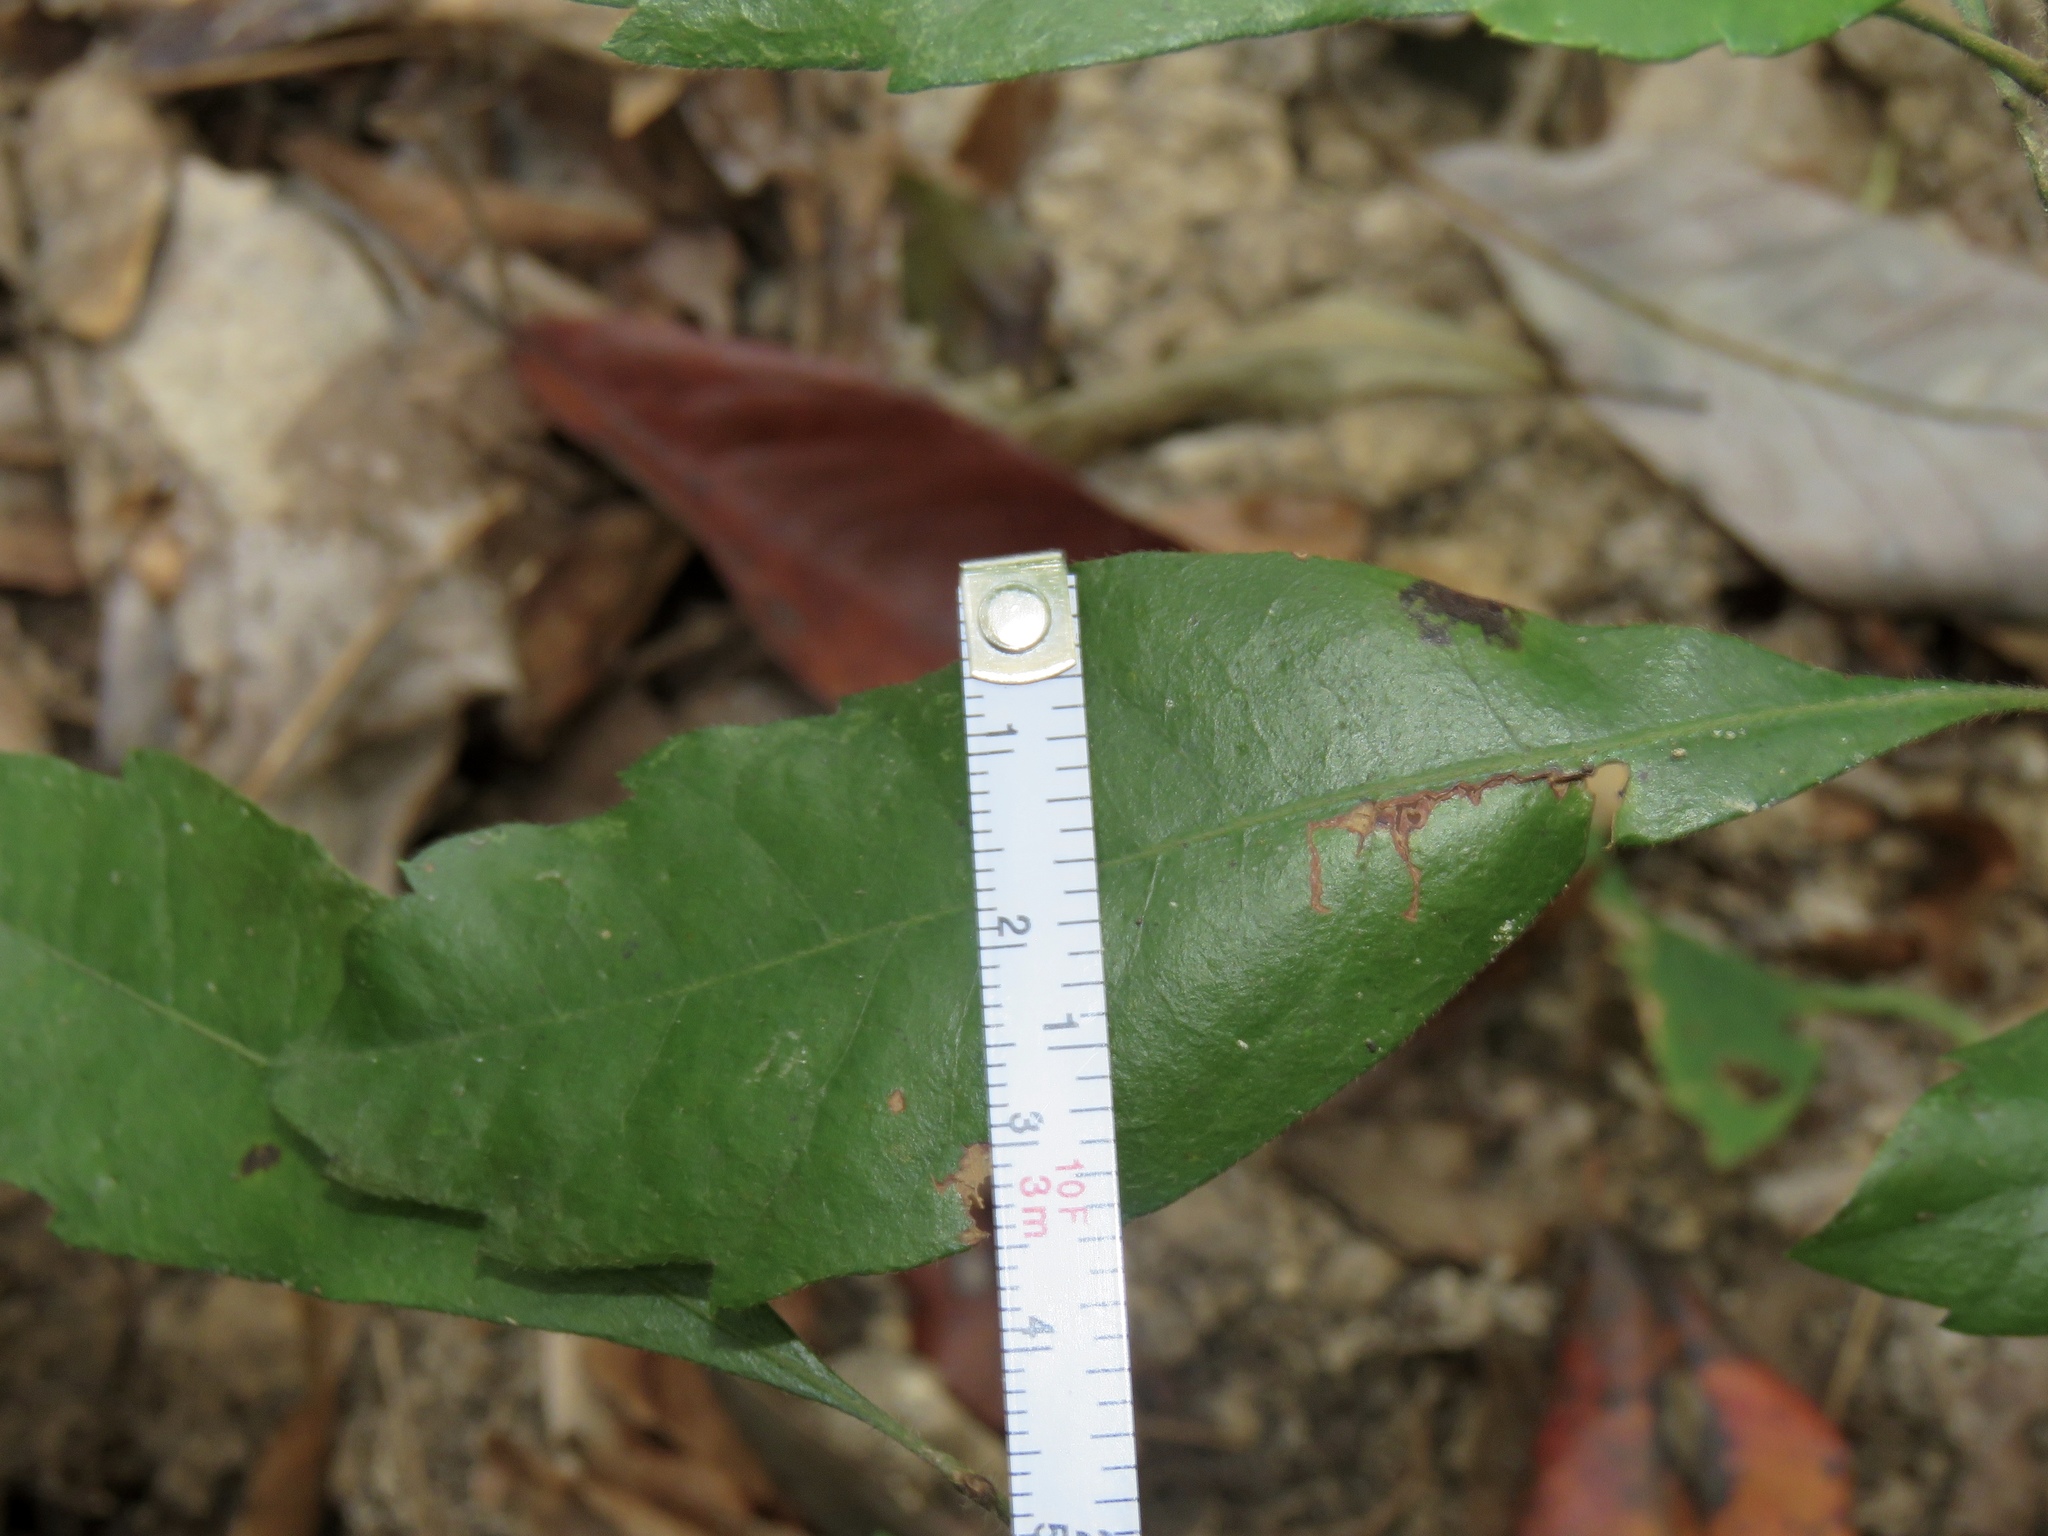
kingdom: Plantae
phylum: Tracheophyta
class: Magnoliopsida
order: Fagales
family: Myricaceae
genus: Morella
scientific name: Morella caroliniensis
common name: Evergreen bayberry
